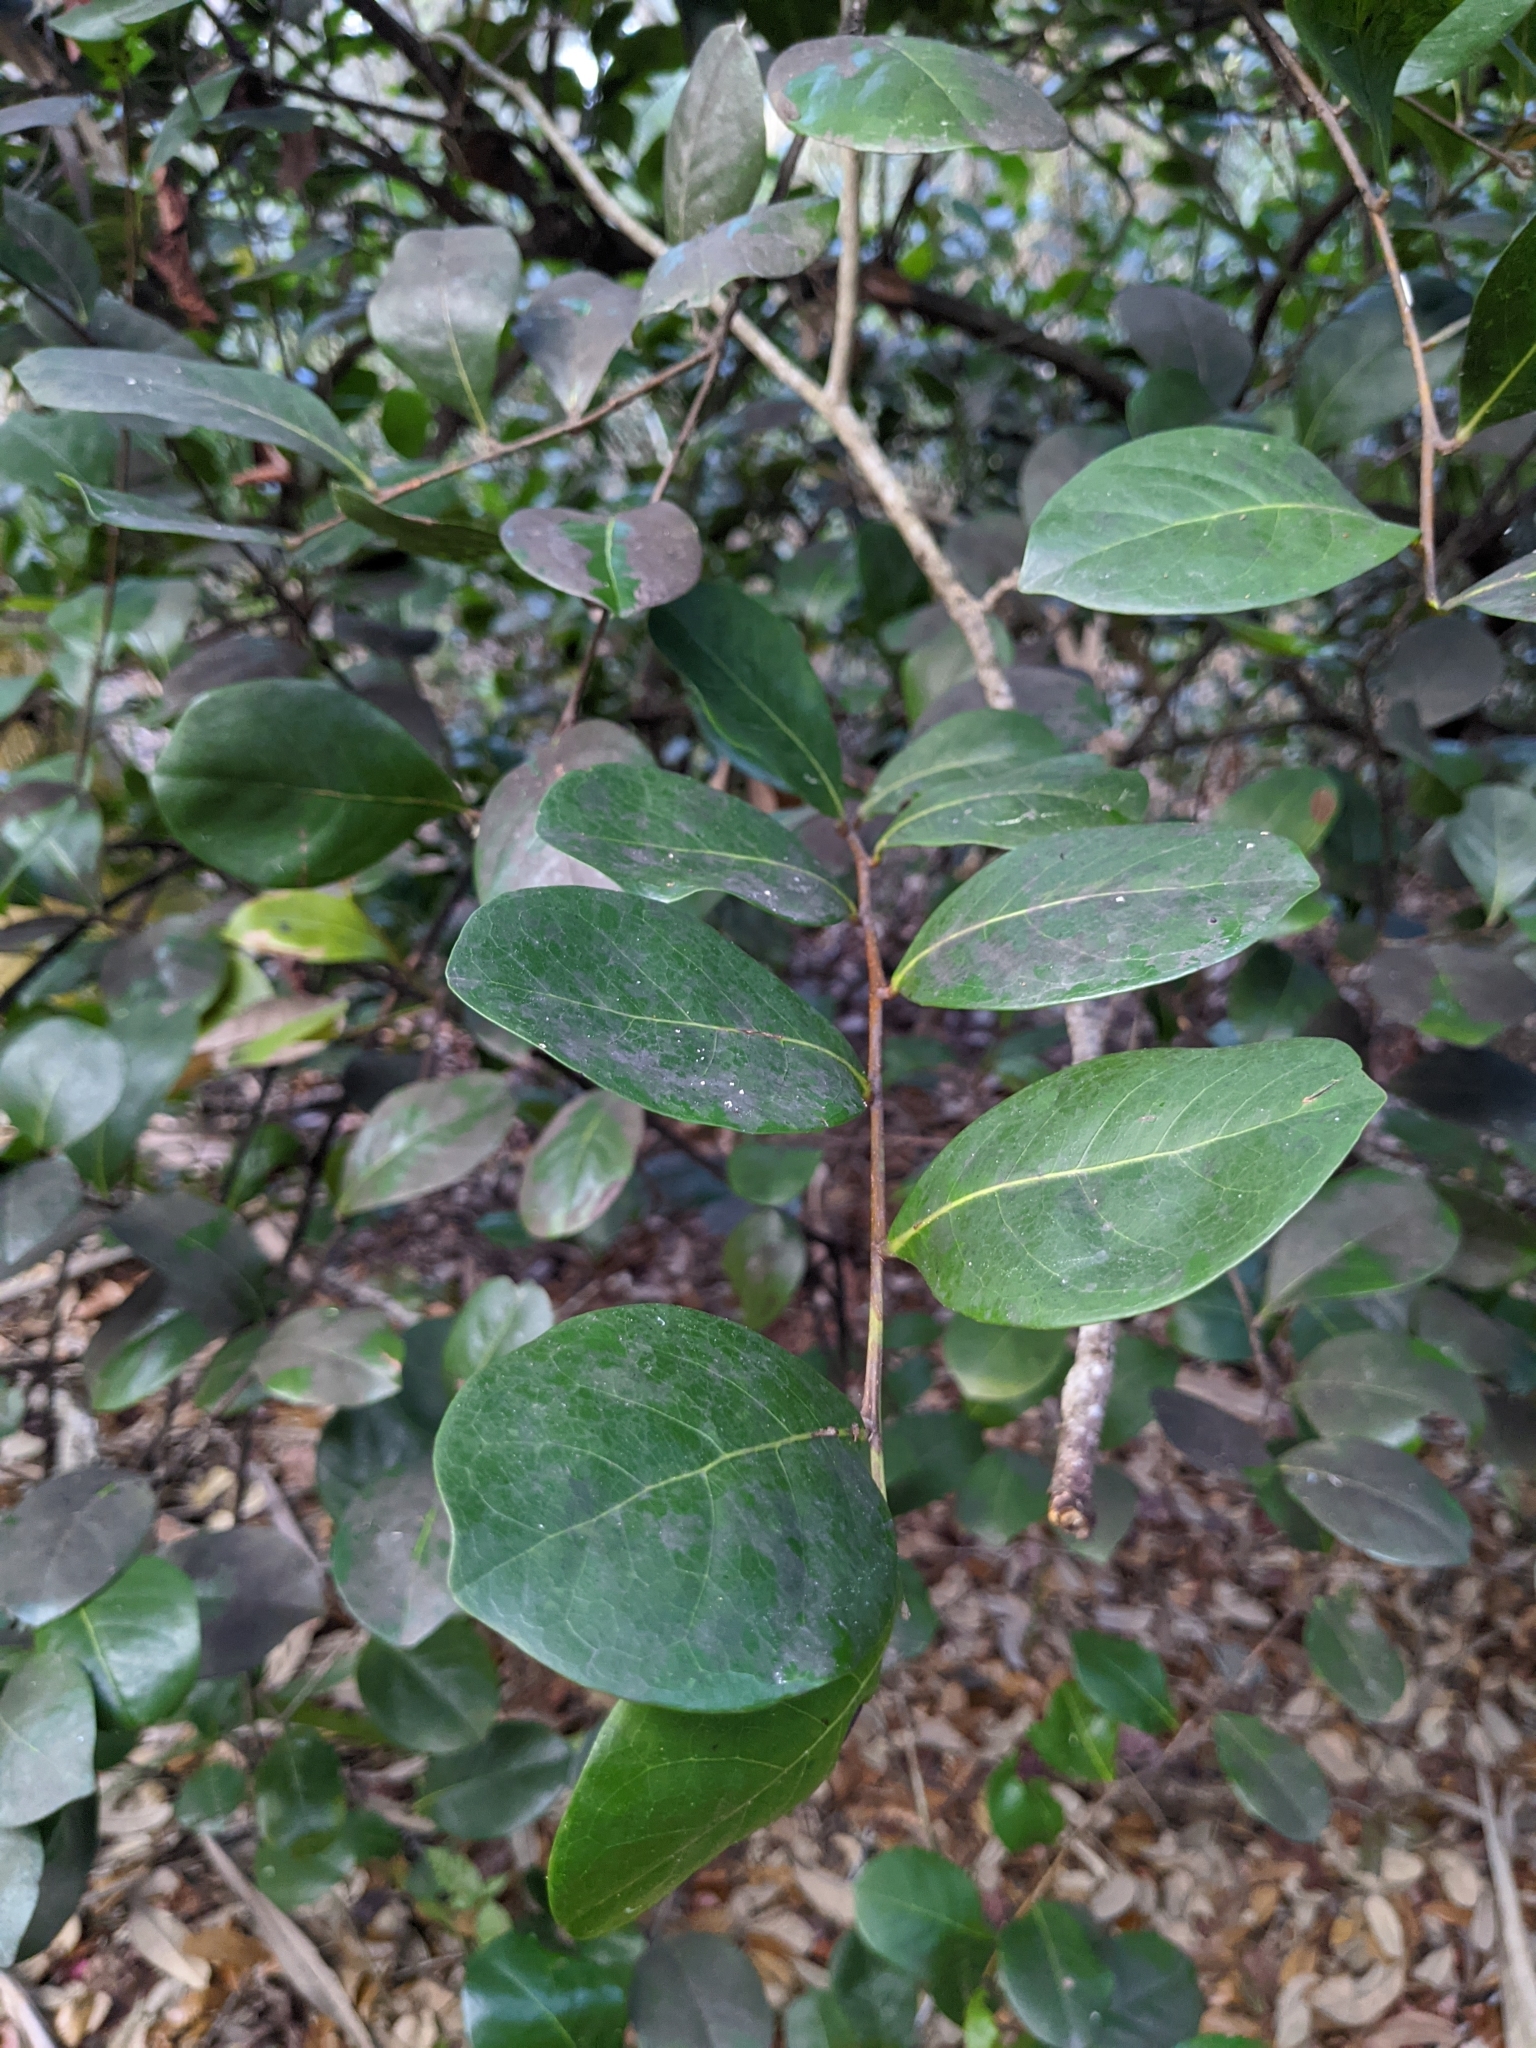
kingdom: Plantae
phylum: Tracheophyta
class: Magnoliopsida
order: Malpighiales
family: Chrysobalanaceae
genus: Chrysobalanus
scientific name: Chrysobalanus icaco
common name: Coco plum
